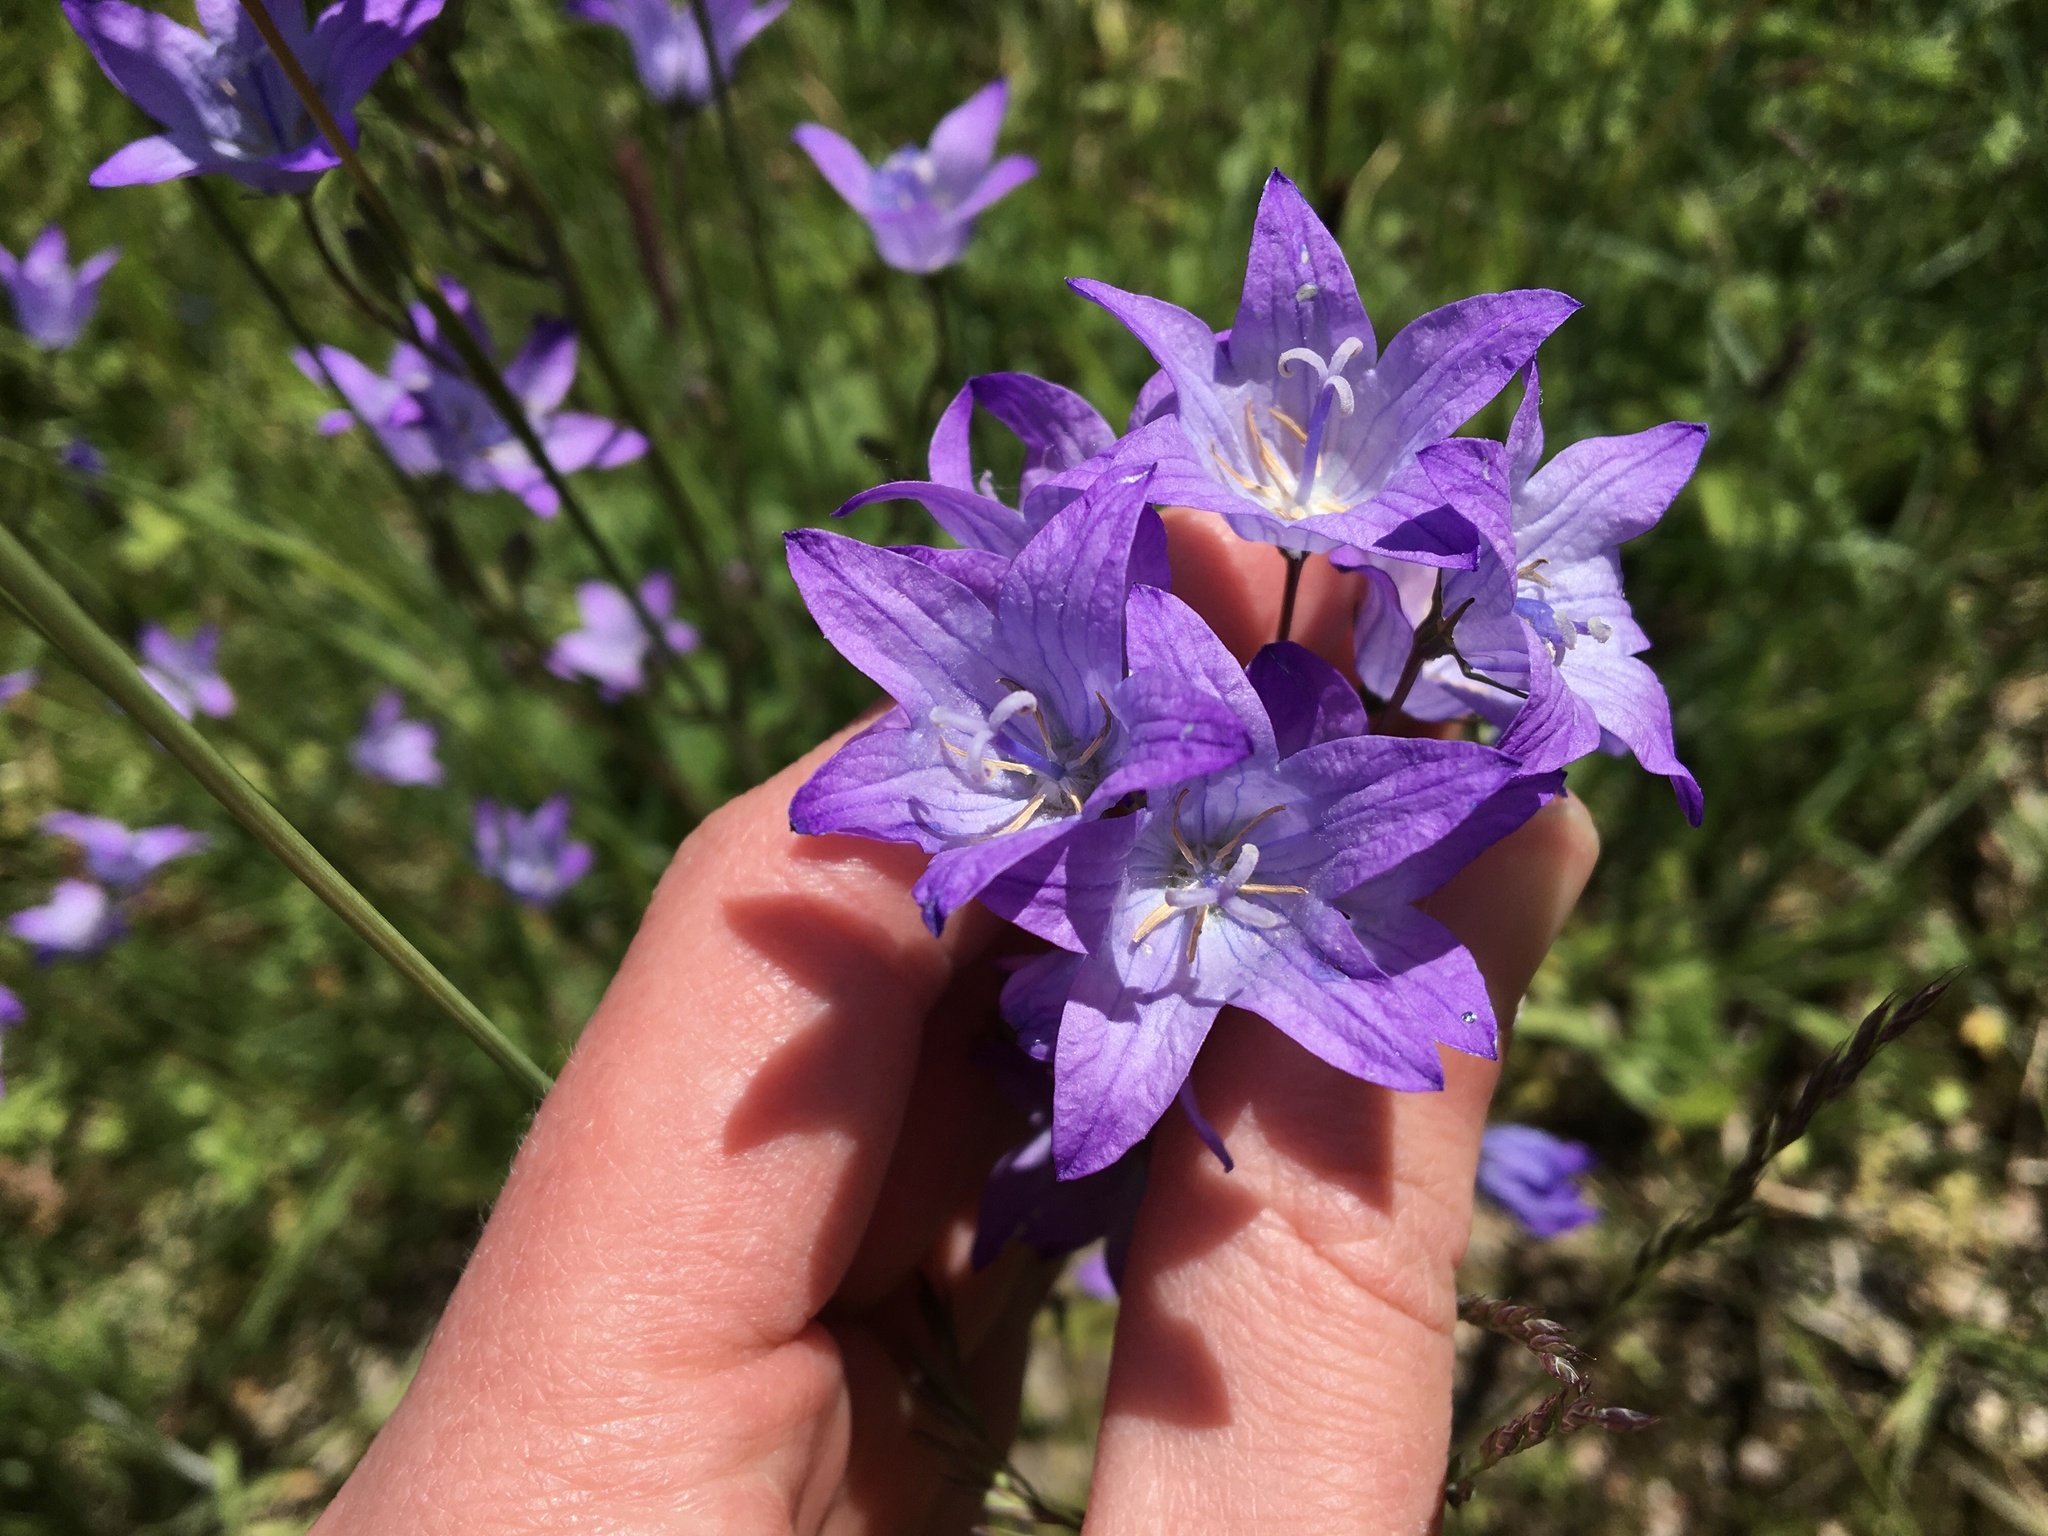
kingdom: Plantae
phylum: Tracheophyta
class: Magnoliopsida
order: Asterales
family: Campanulaceae
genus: Campanula
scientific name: Campanula patula
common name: Spreading bellflower
